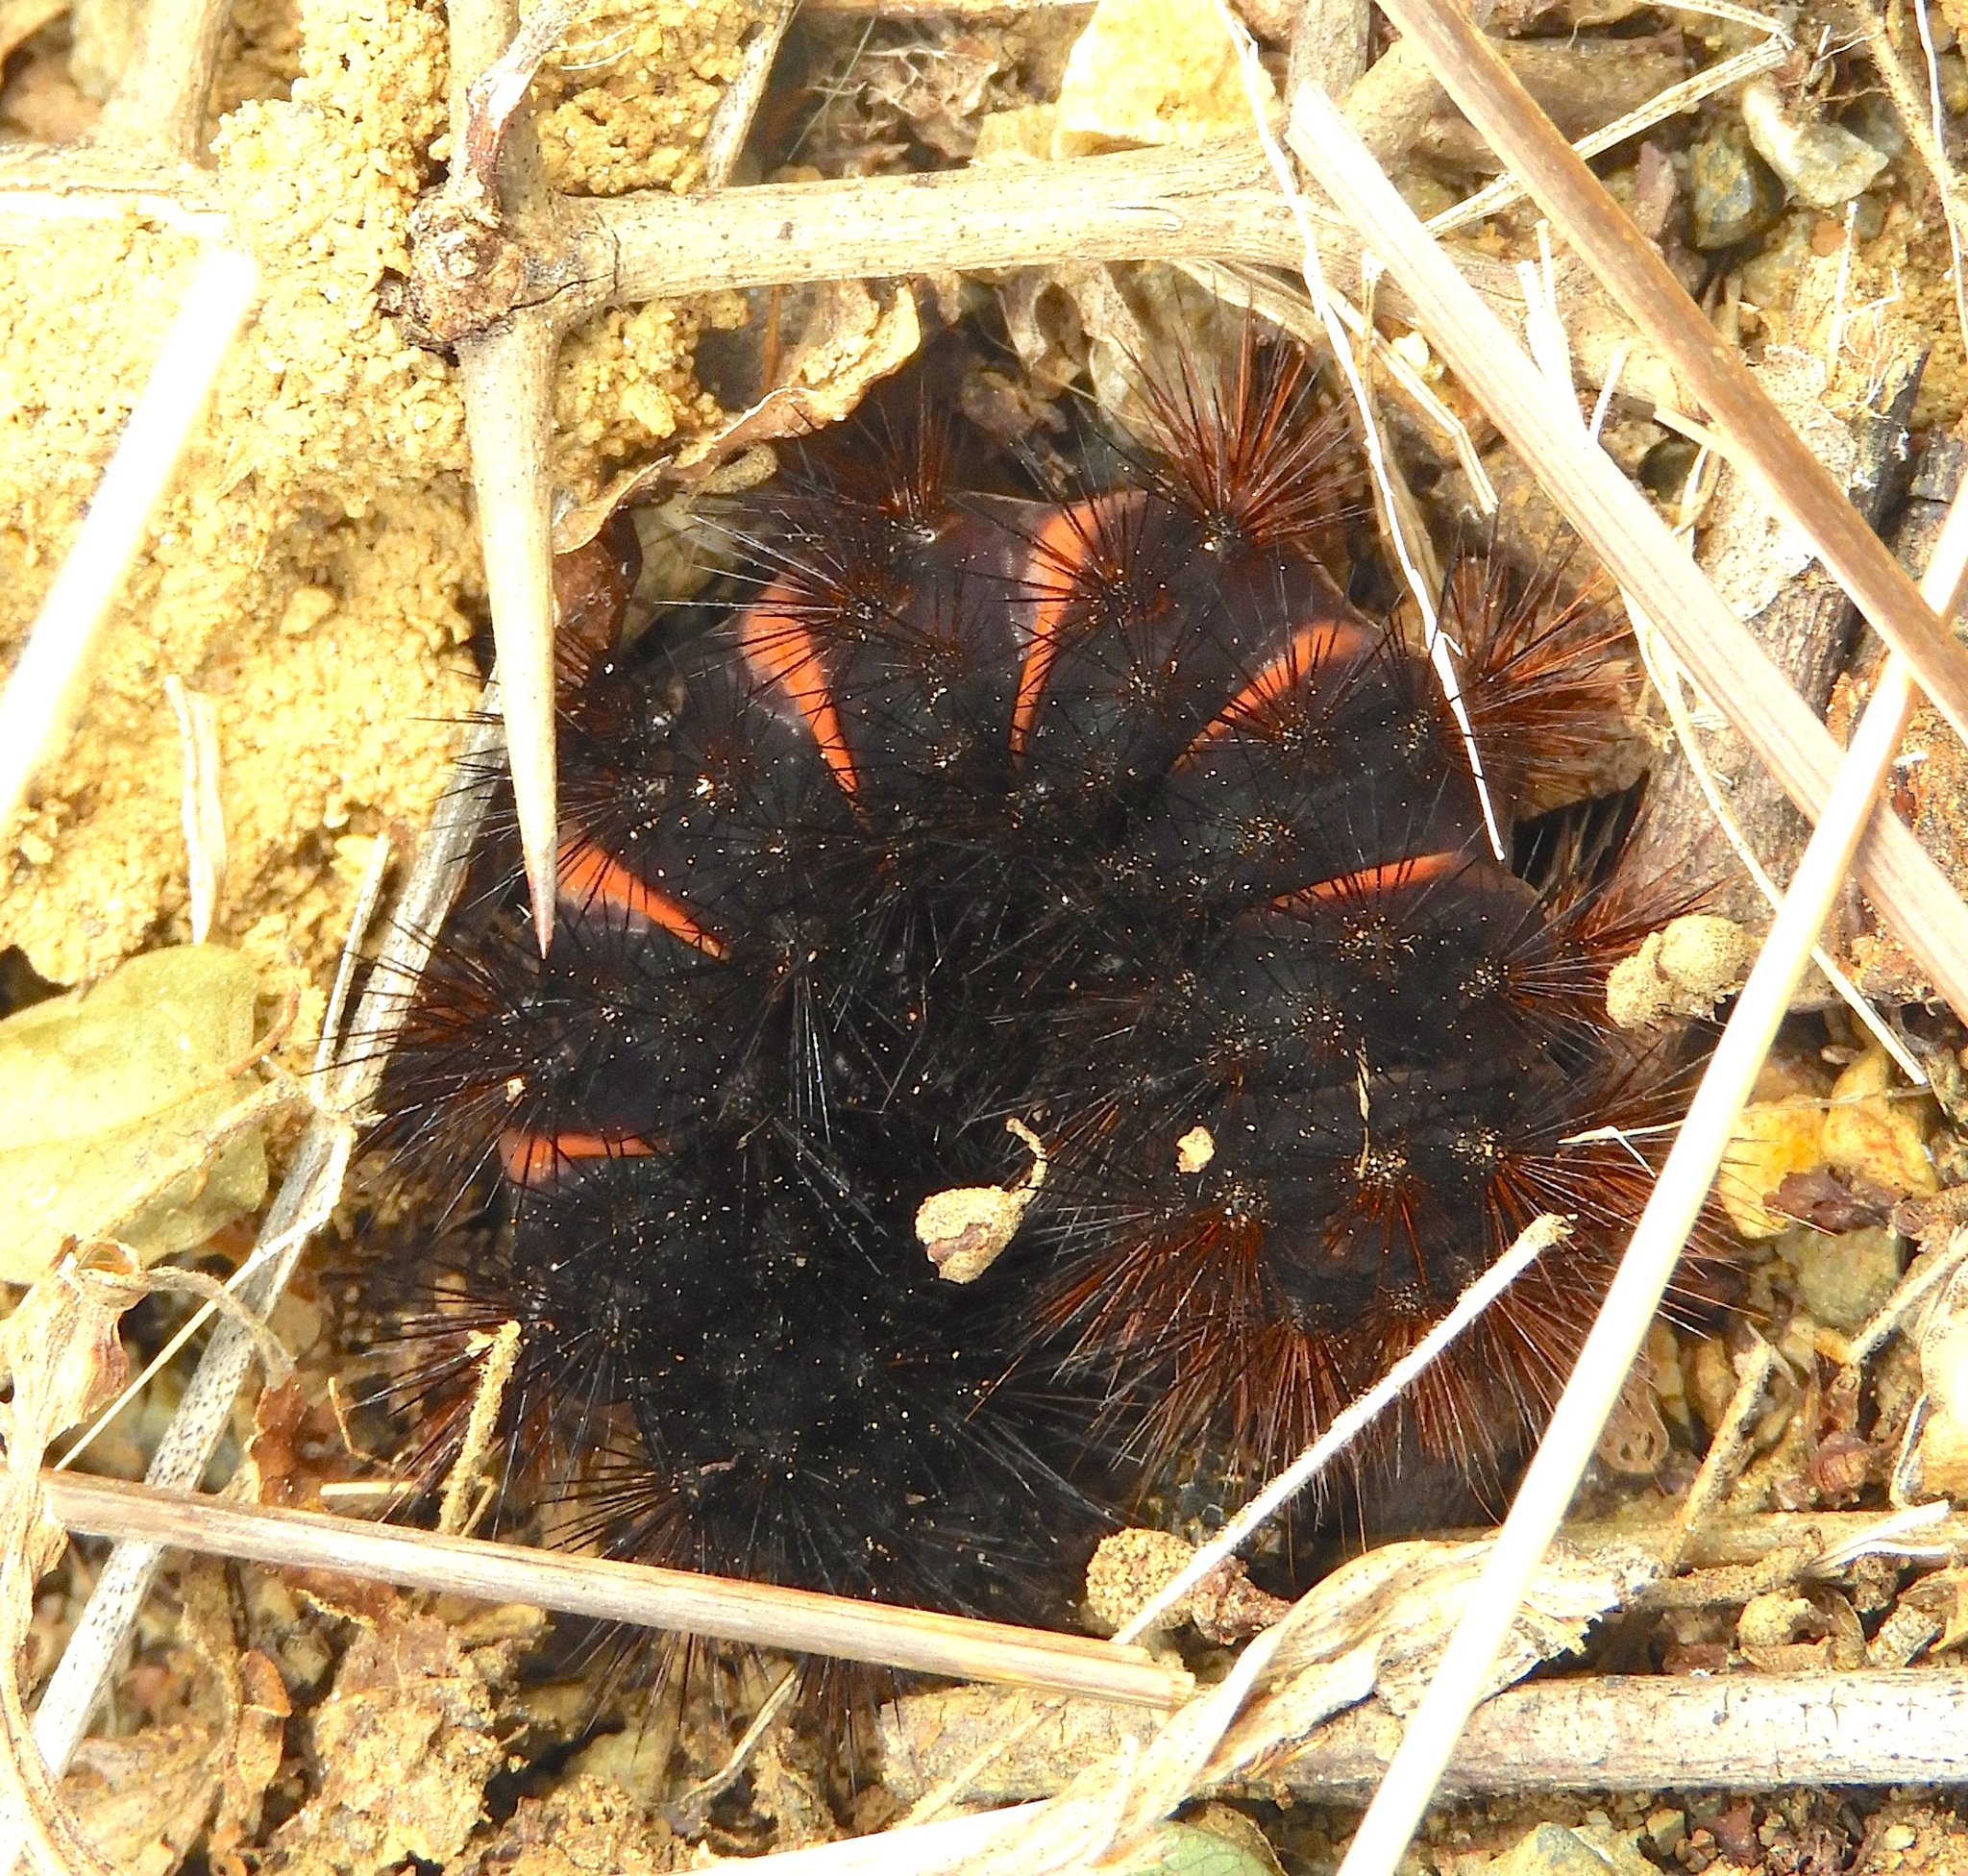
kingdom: Animalia
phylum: Arthropoda
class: Insecta
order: Lepidoptera
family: Erebidae
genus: Hypercompe
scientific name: Hypercompe scribonia
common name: Giant leopard moth
